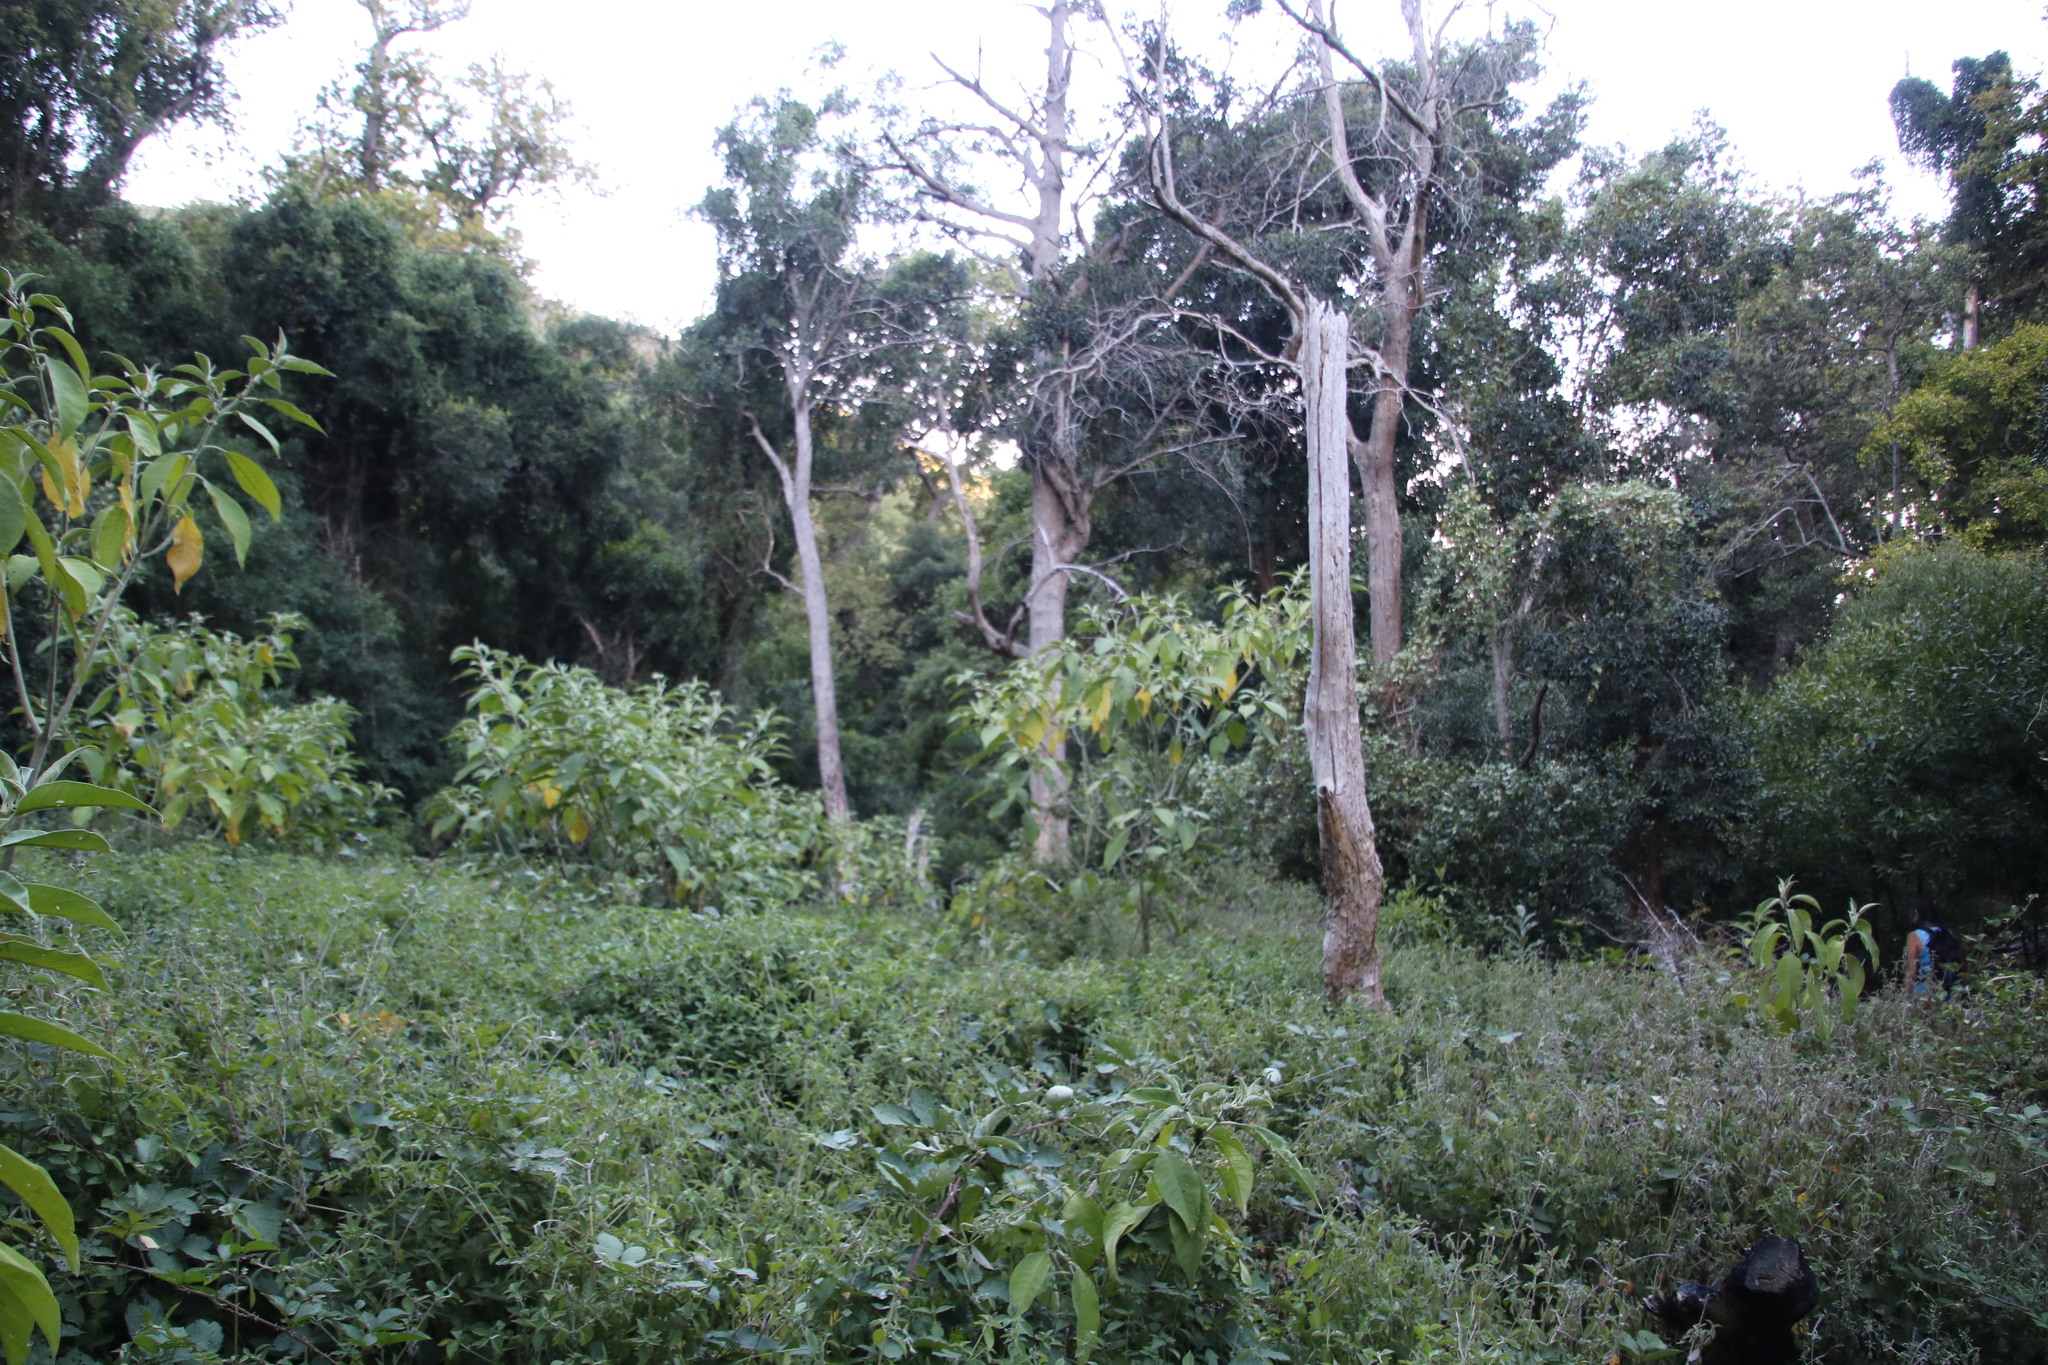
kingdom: Plantae
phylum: Tracheophyta
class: Magnoliopsida
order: Solanales
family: Solanaceae
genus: Solanum
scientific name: Solanum mauritianum
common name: Earleaf nightshade
